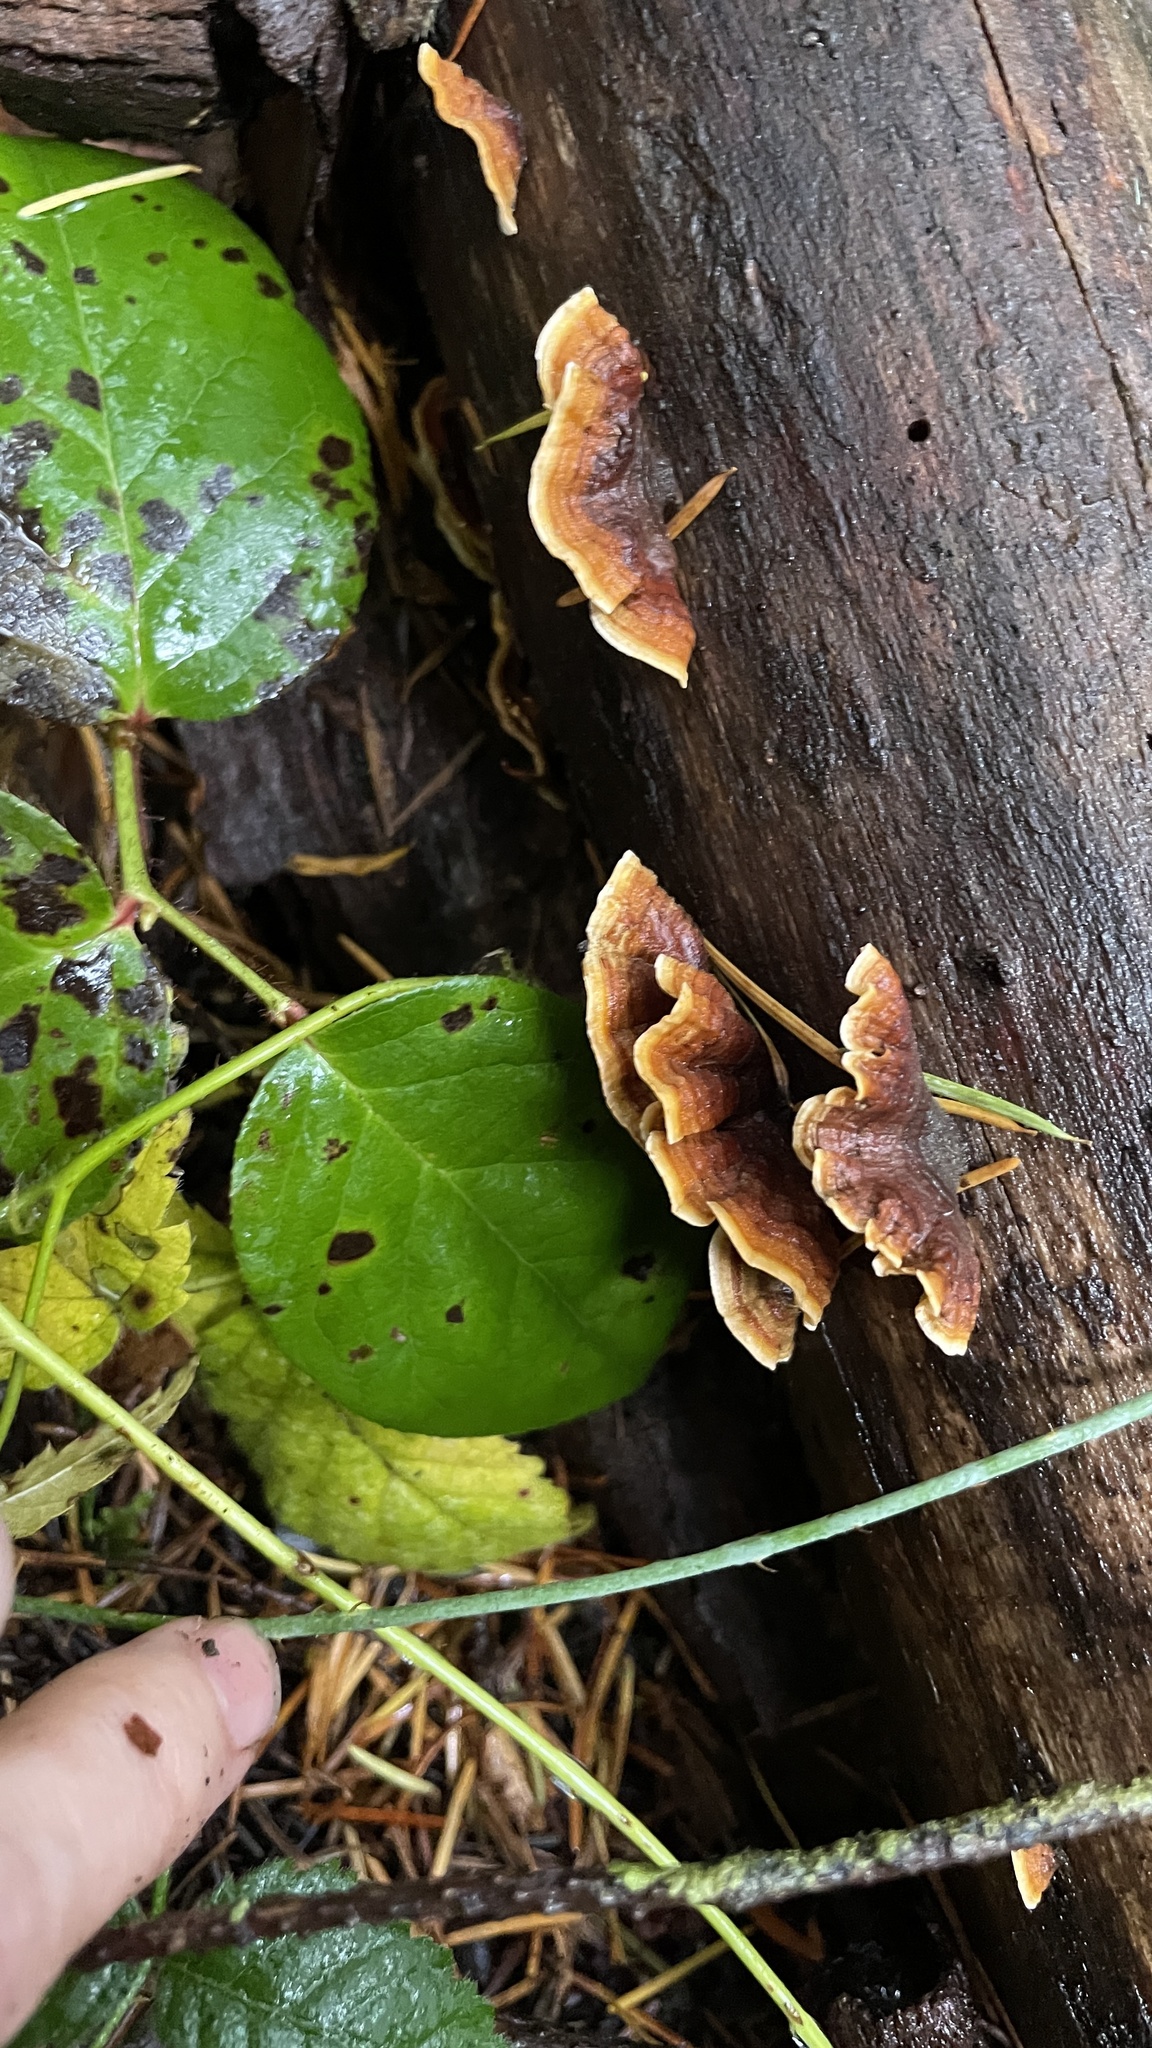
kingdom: Fungi
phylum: Basidiomycota
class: Agaricomycetes
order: Russulales
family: Stereaceae
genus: Stereum
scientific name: Stereum hirsutum
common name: Hairy curtain crust
